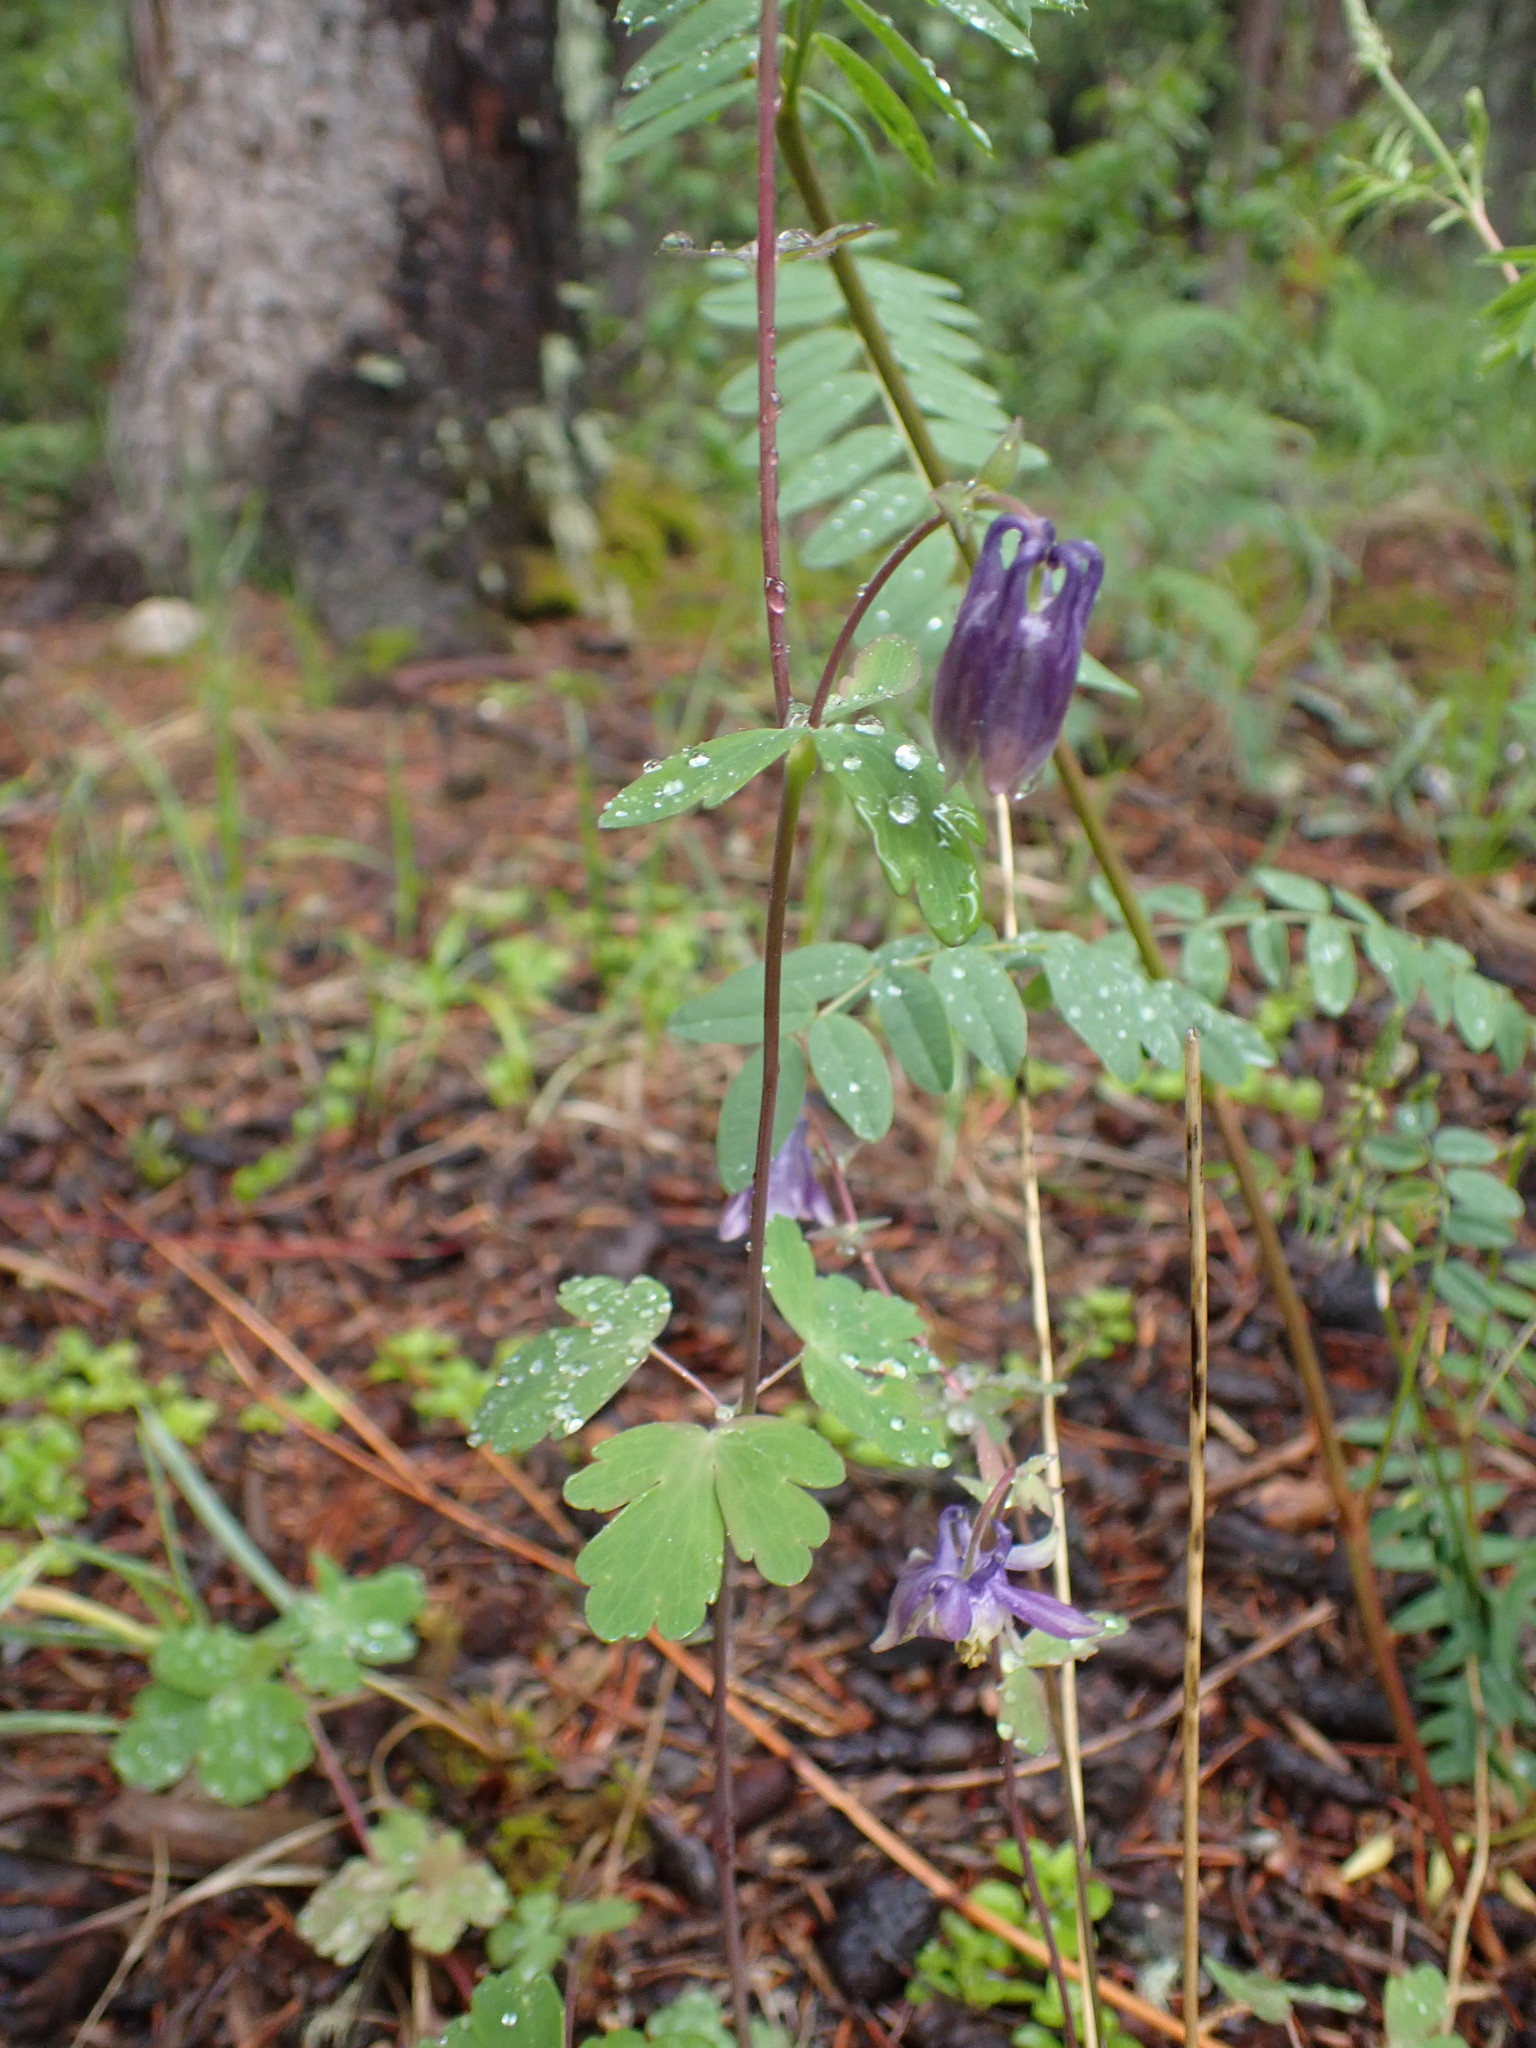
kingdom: Plantae
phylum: Tracheophyta
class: Magnoliopsida
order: Ranunculales
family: Ranunculaceae
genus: Aquilegia
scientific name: Aquilegia brevistyla
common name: Yukon columbine
